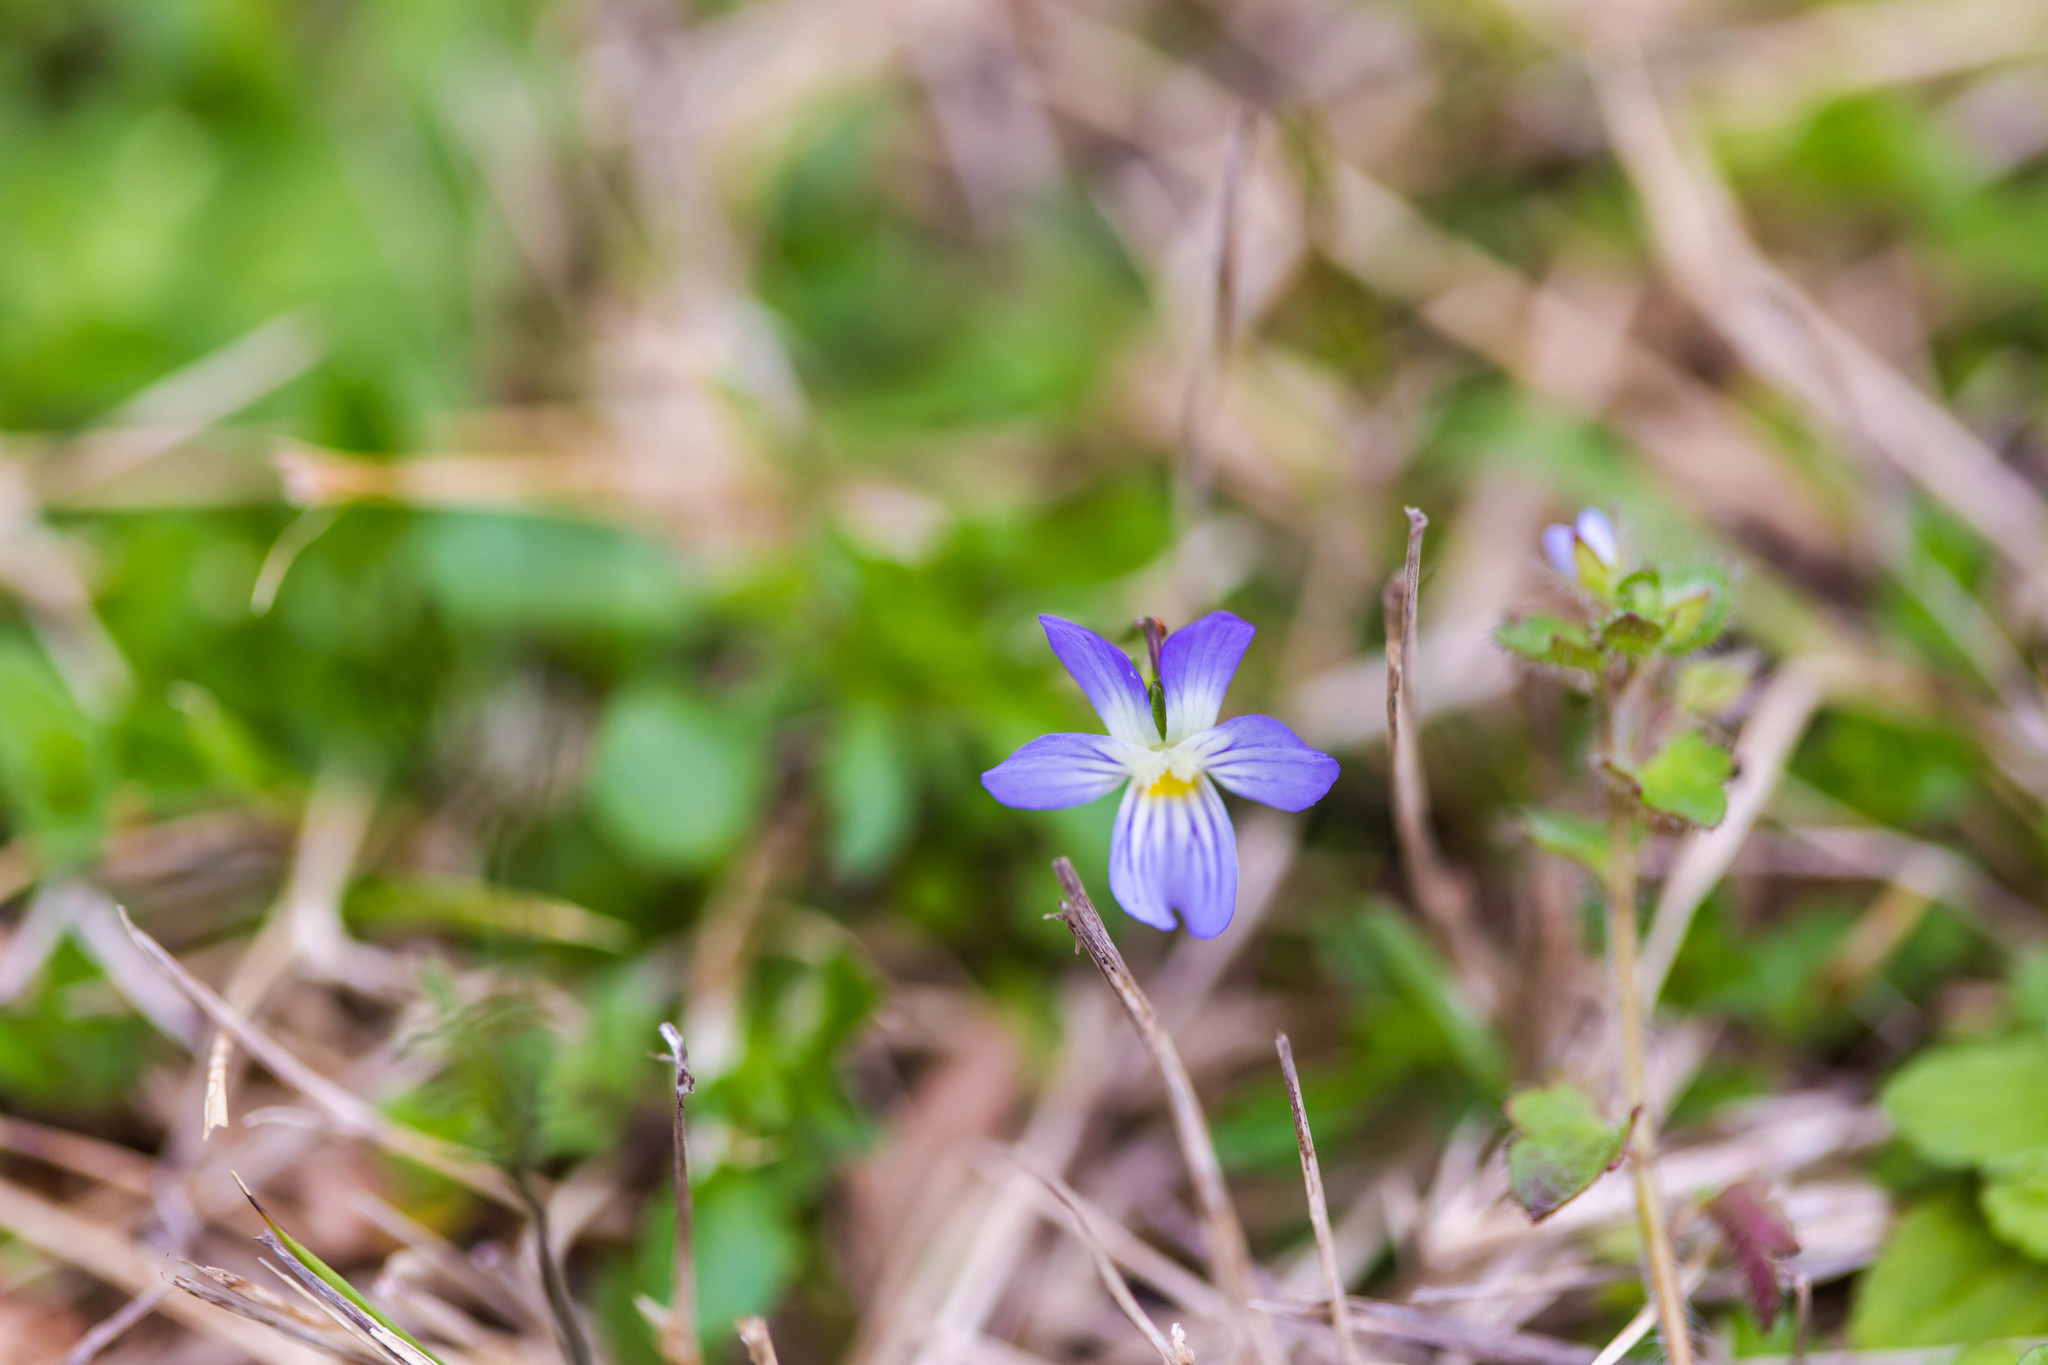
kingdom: Plantae
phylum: Tracheophyta
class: Magnoliopsida
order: Malpighiales
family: Violaceae
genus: Viola
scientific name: Viola rafinesquei
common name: American field pansy
